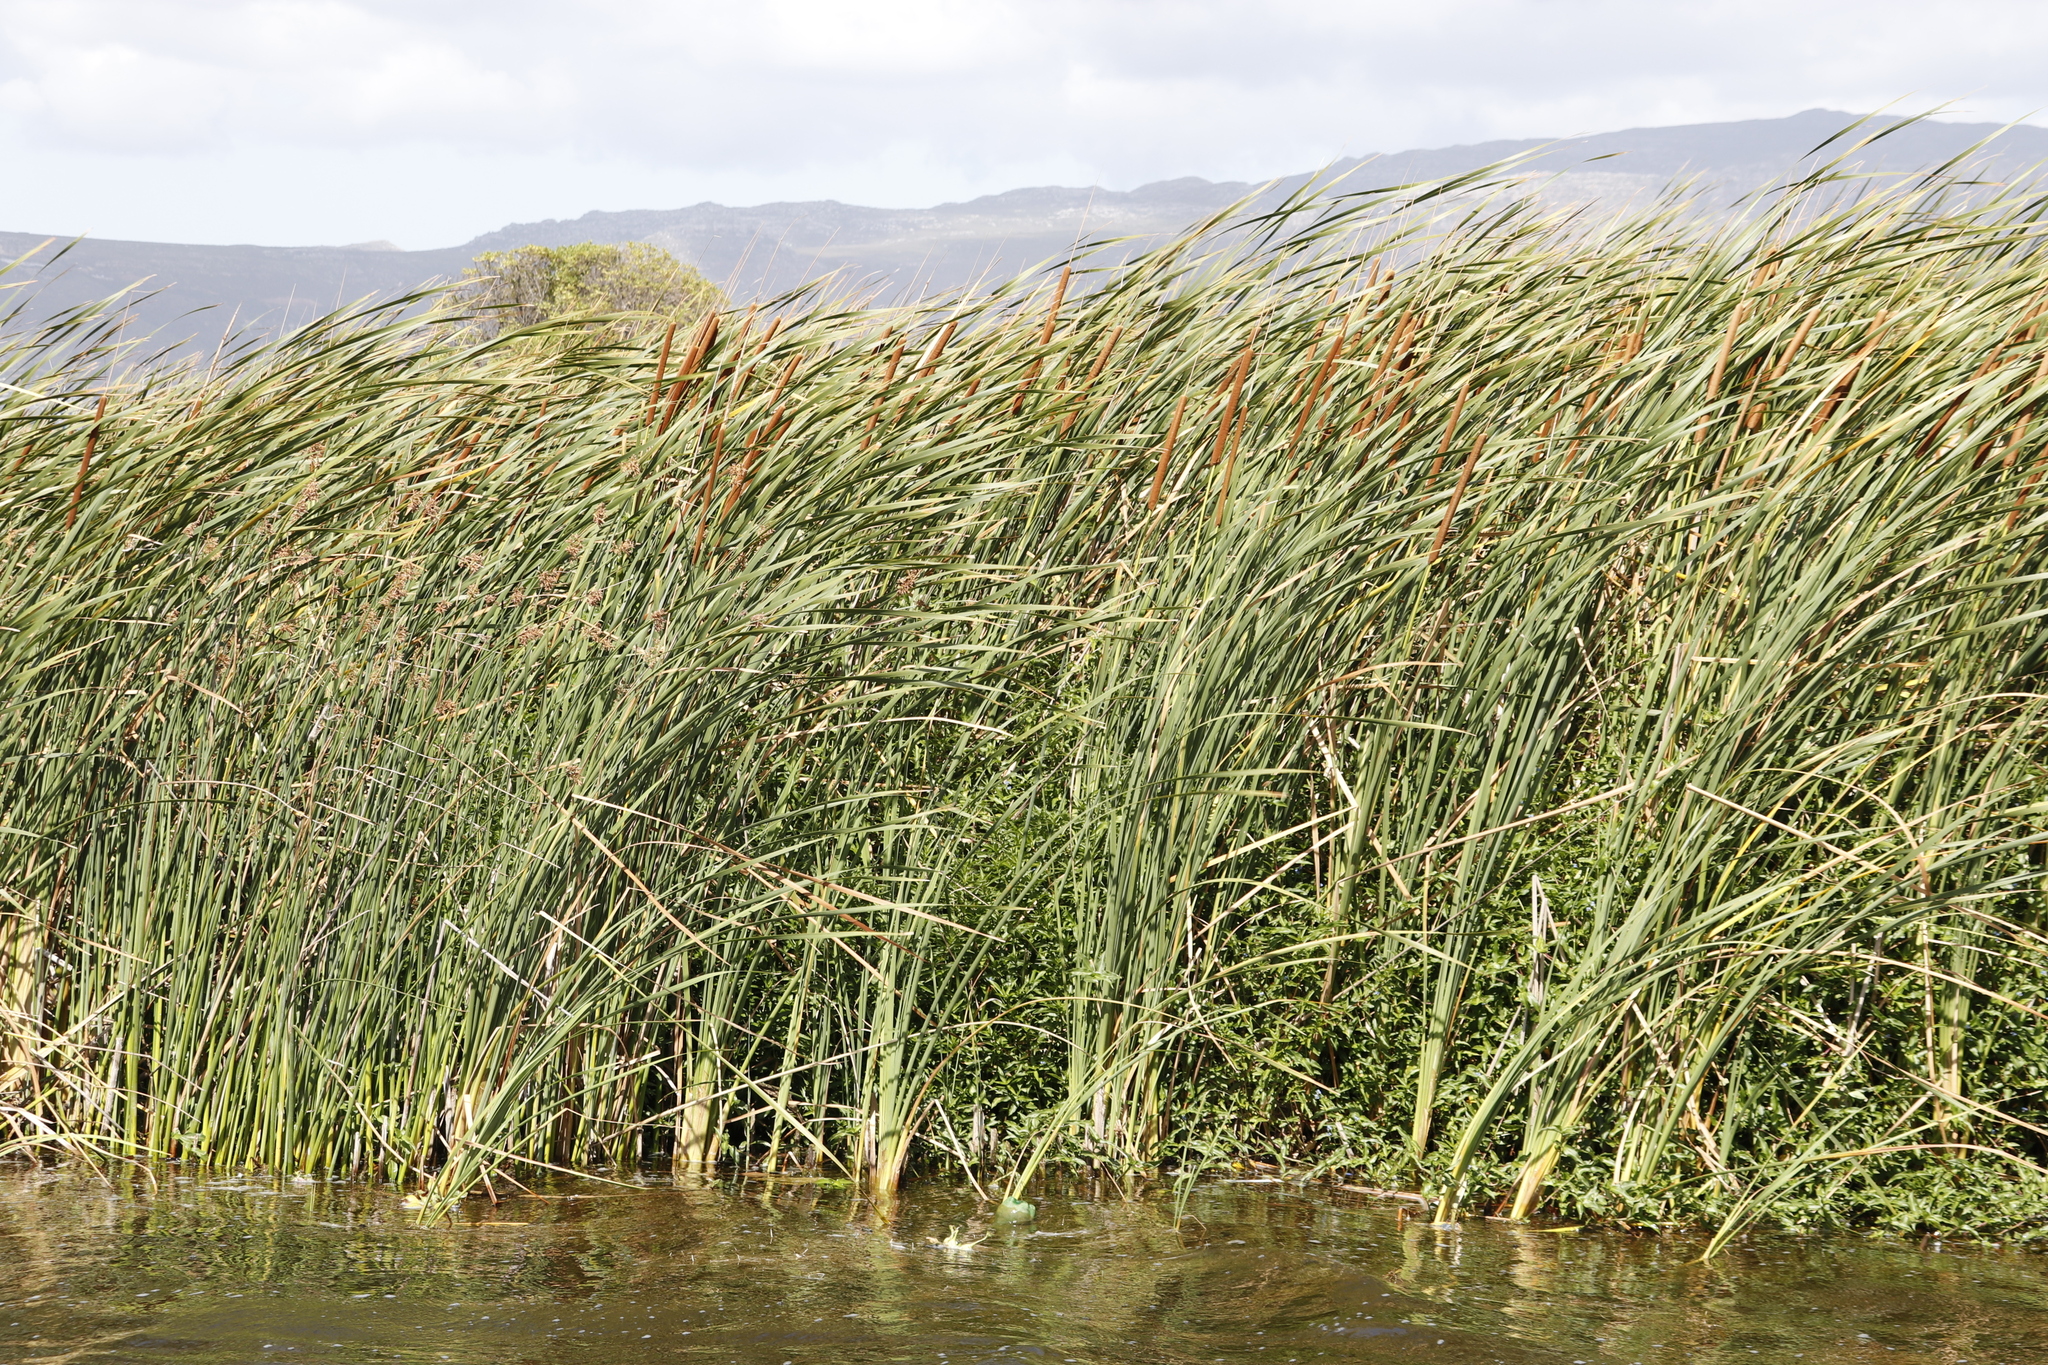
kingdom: Plantae
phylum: Tracheophyta
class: Liliopsida
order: Poales
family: Typhaceae
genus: Typha
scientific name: Typha capensis
